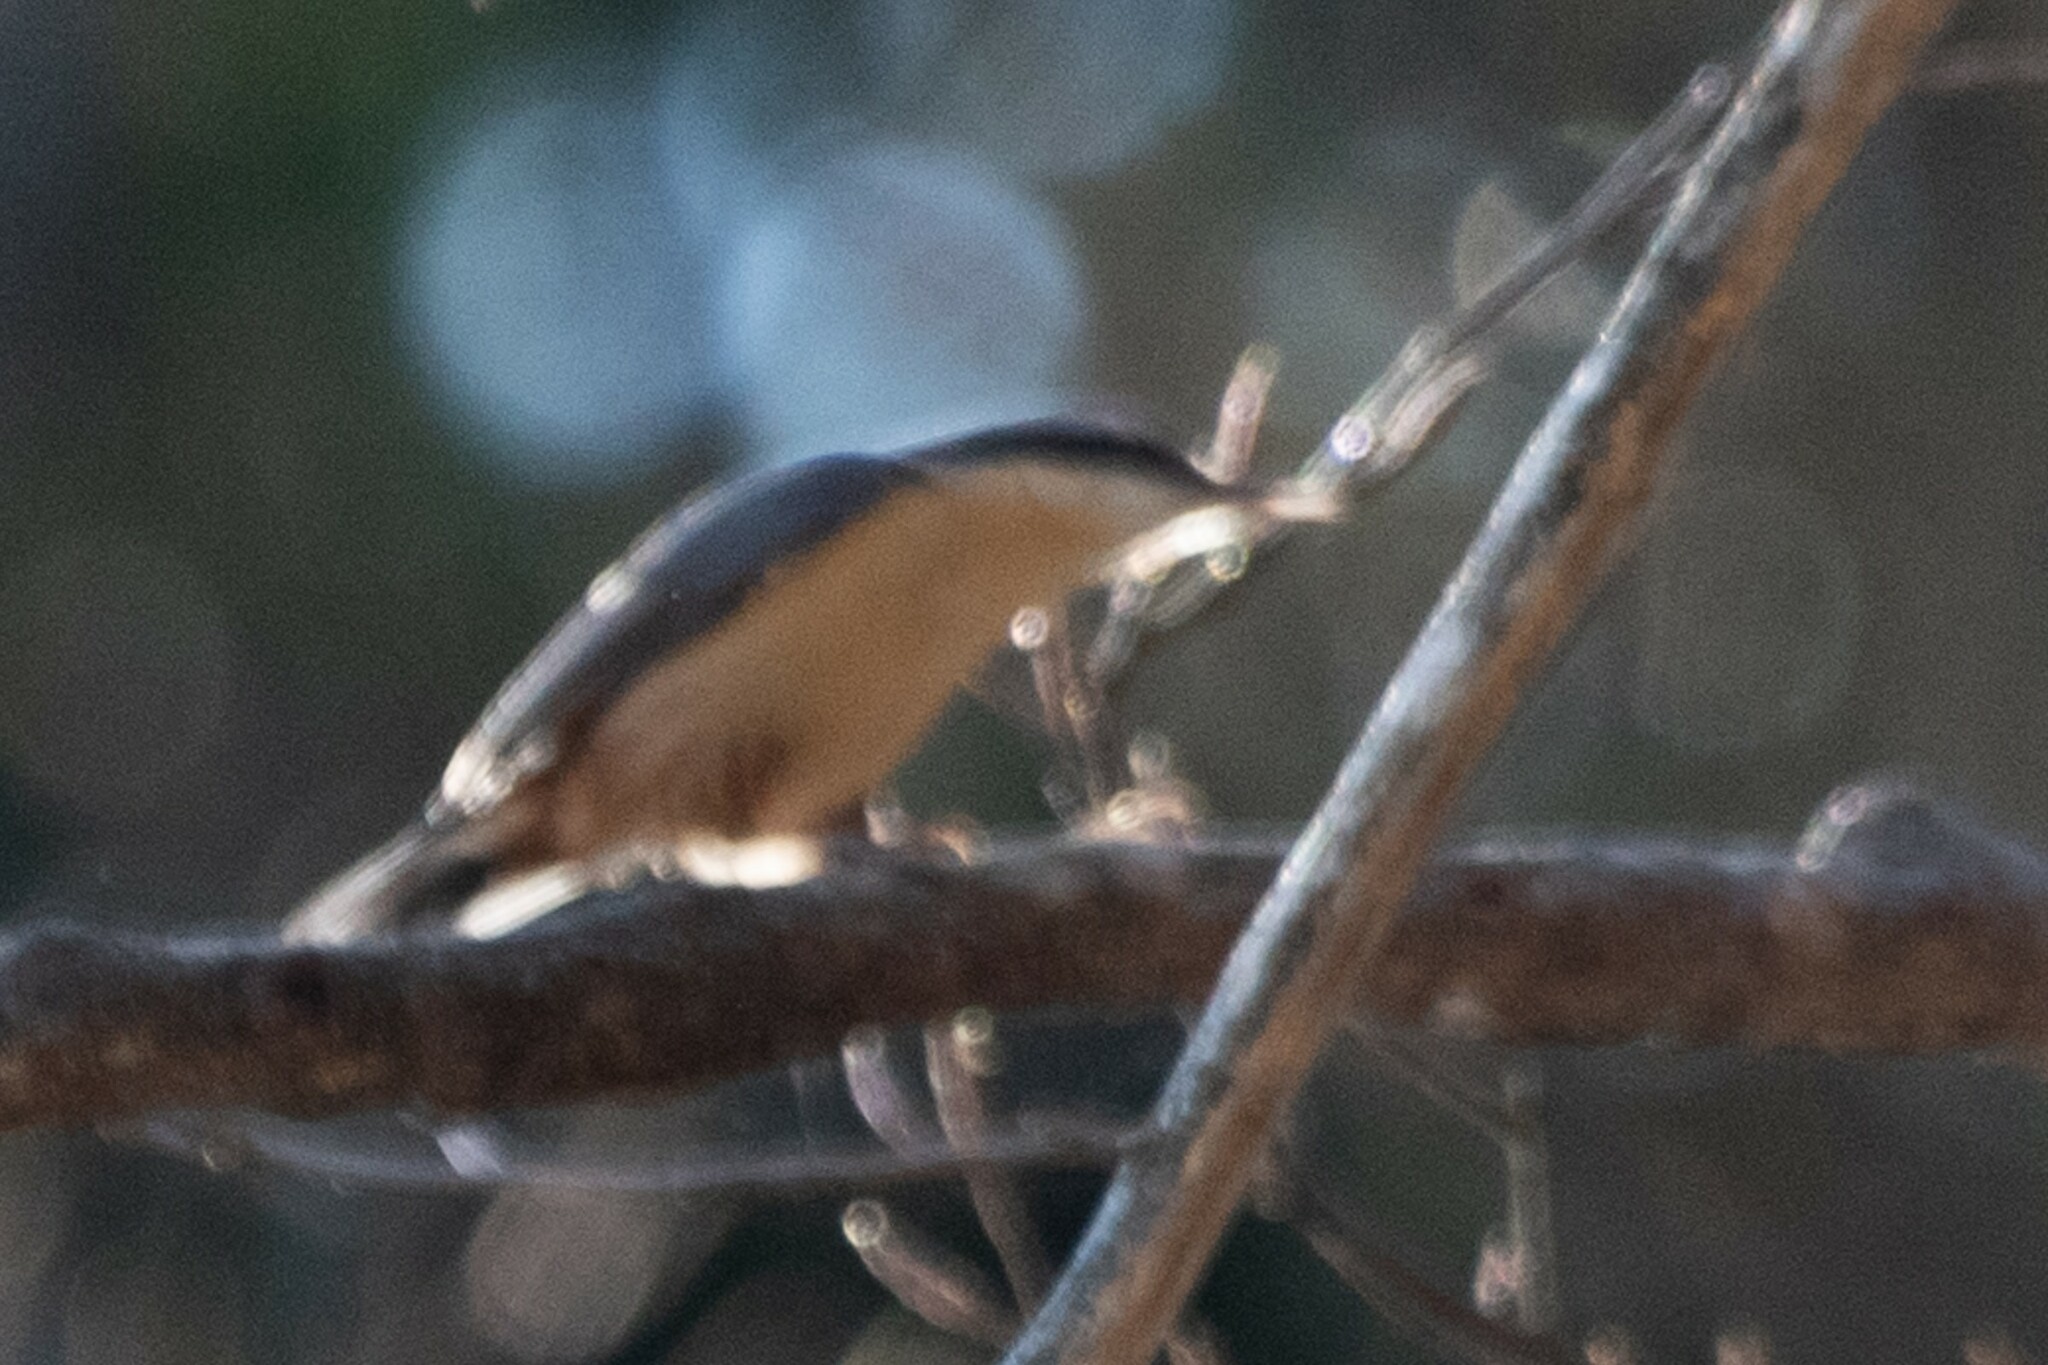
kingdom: Animalia
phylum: Chordata
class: Aves
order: Passeriformes
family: Sittidae
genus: Sitta
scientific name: Sitta europaea
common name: Eurasian nuthatch
